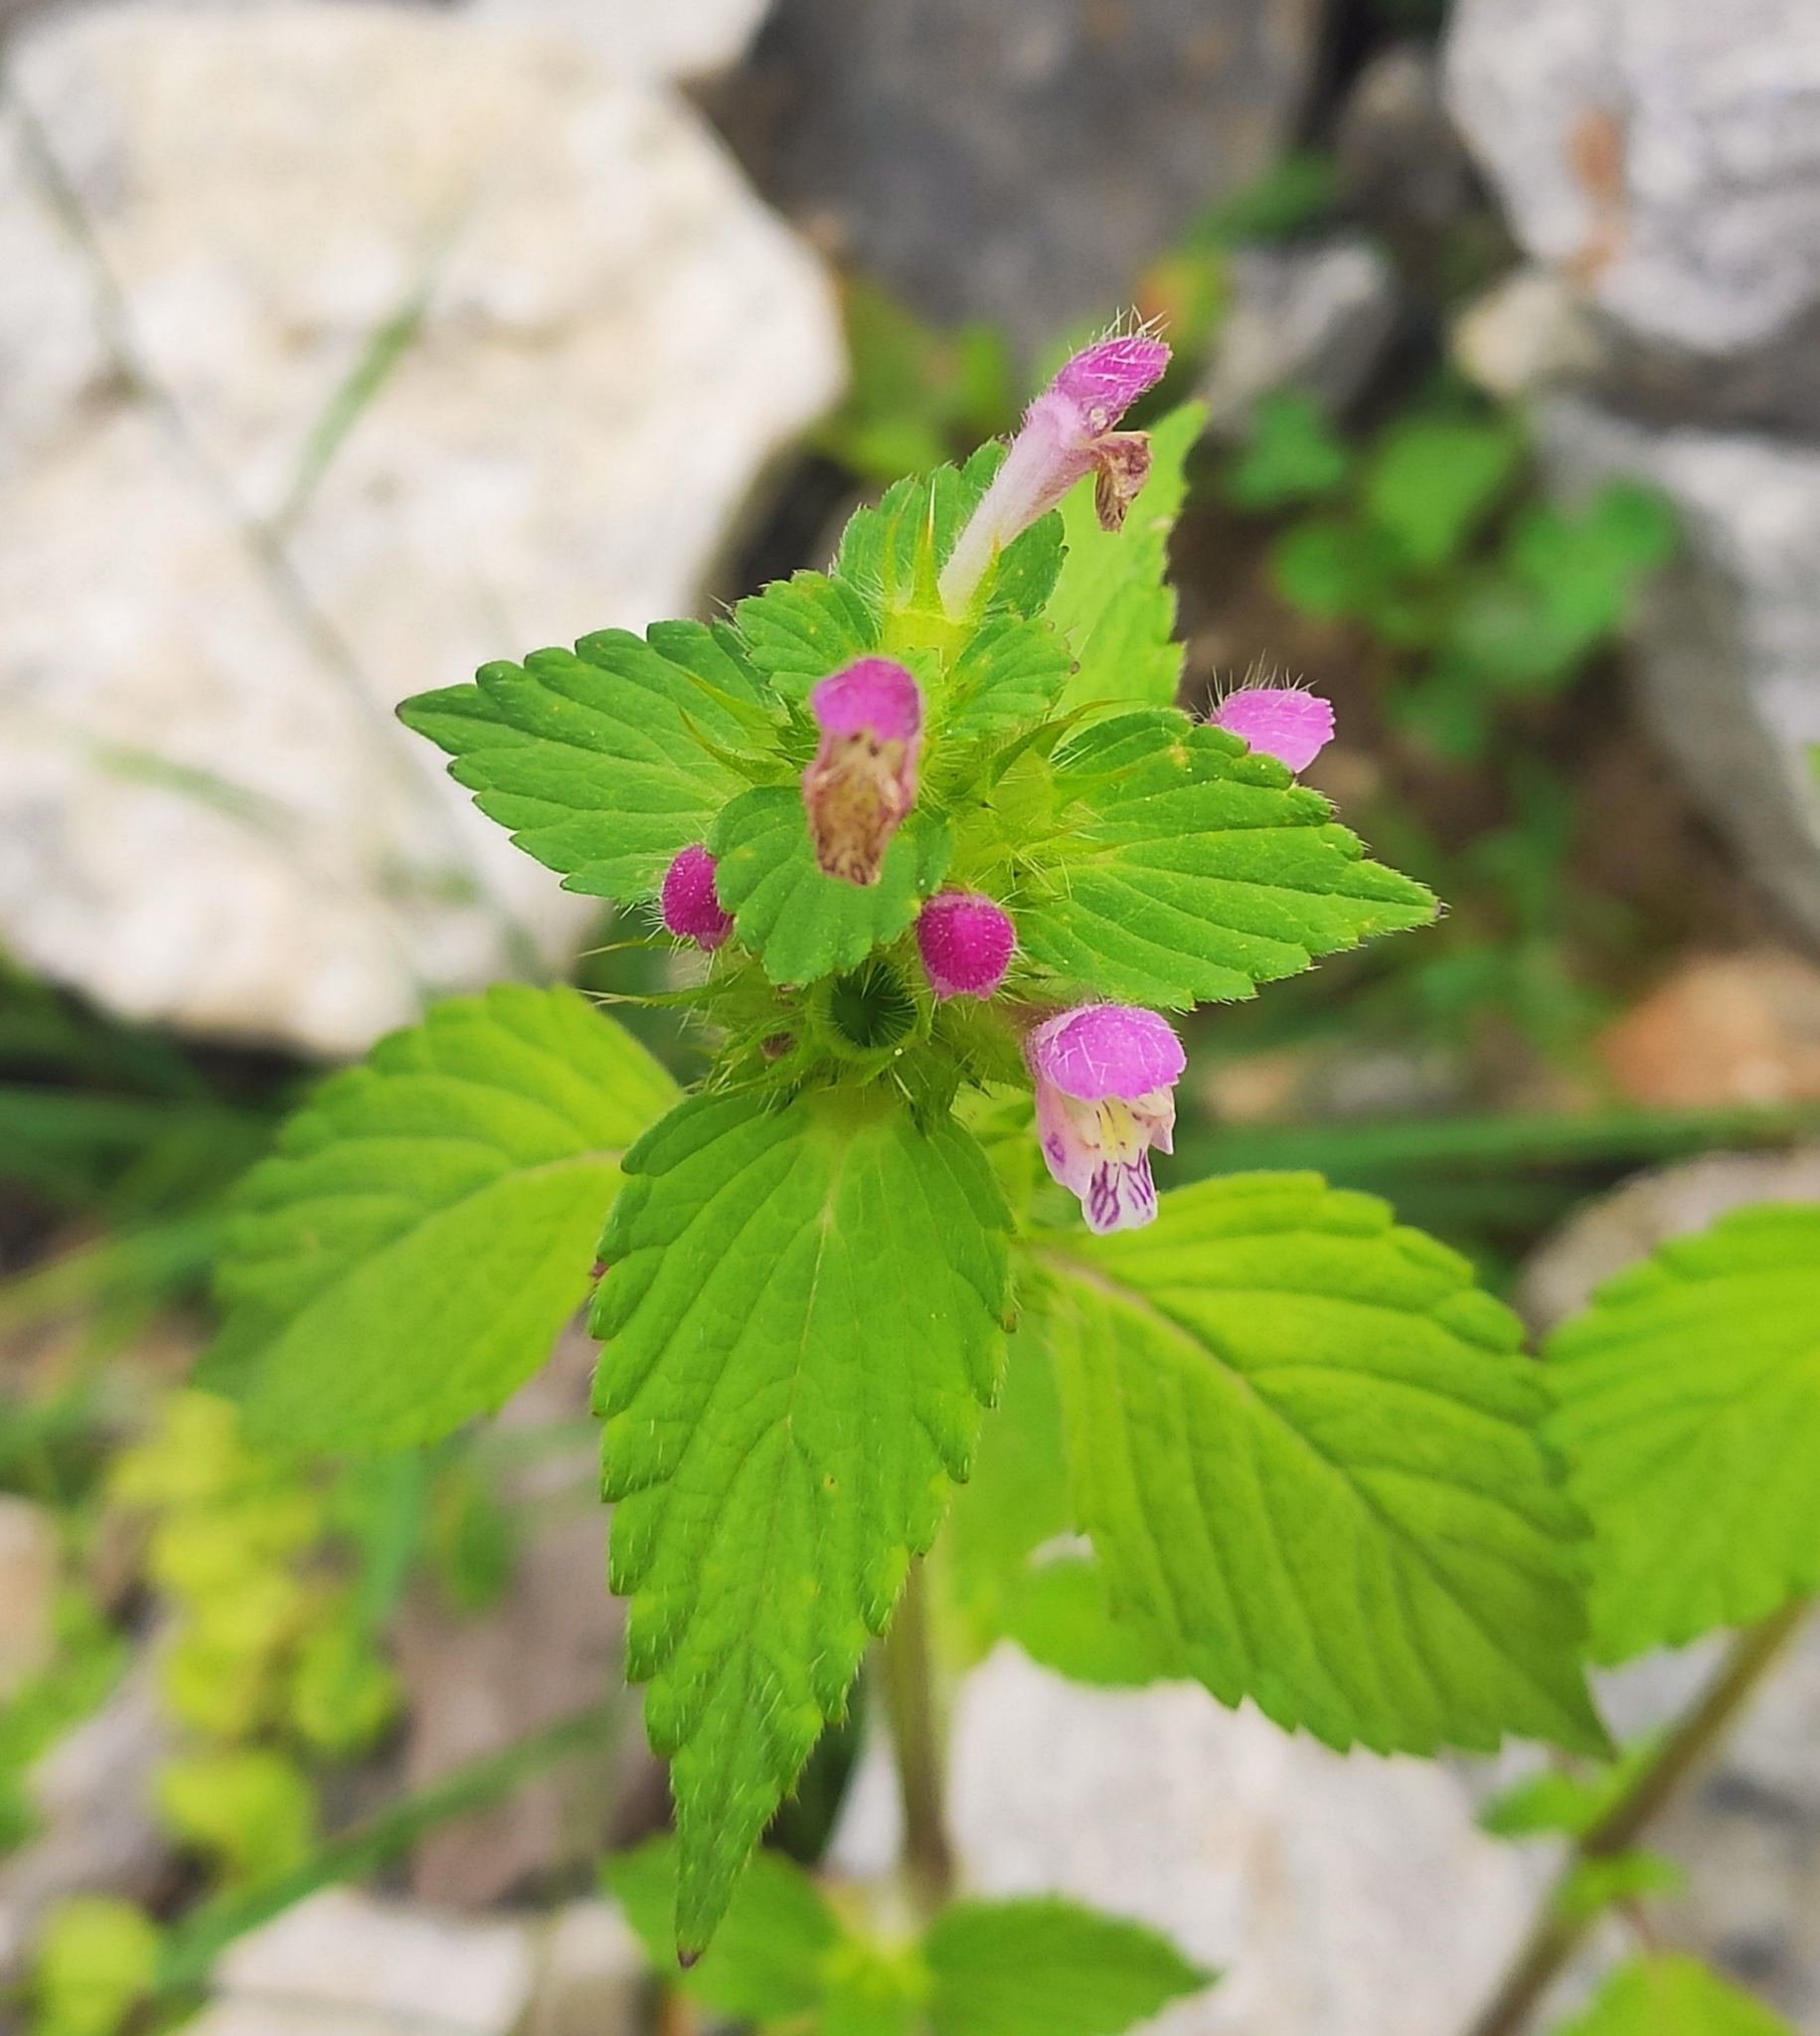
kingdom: Plantae
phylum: Tracheophyta
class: Magnoliopsida
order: Lamiales
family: Lamiaceae
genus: Galeopsis
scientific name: Galeopsis bifida
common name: Bifid hemp-nettle
